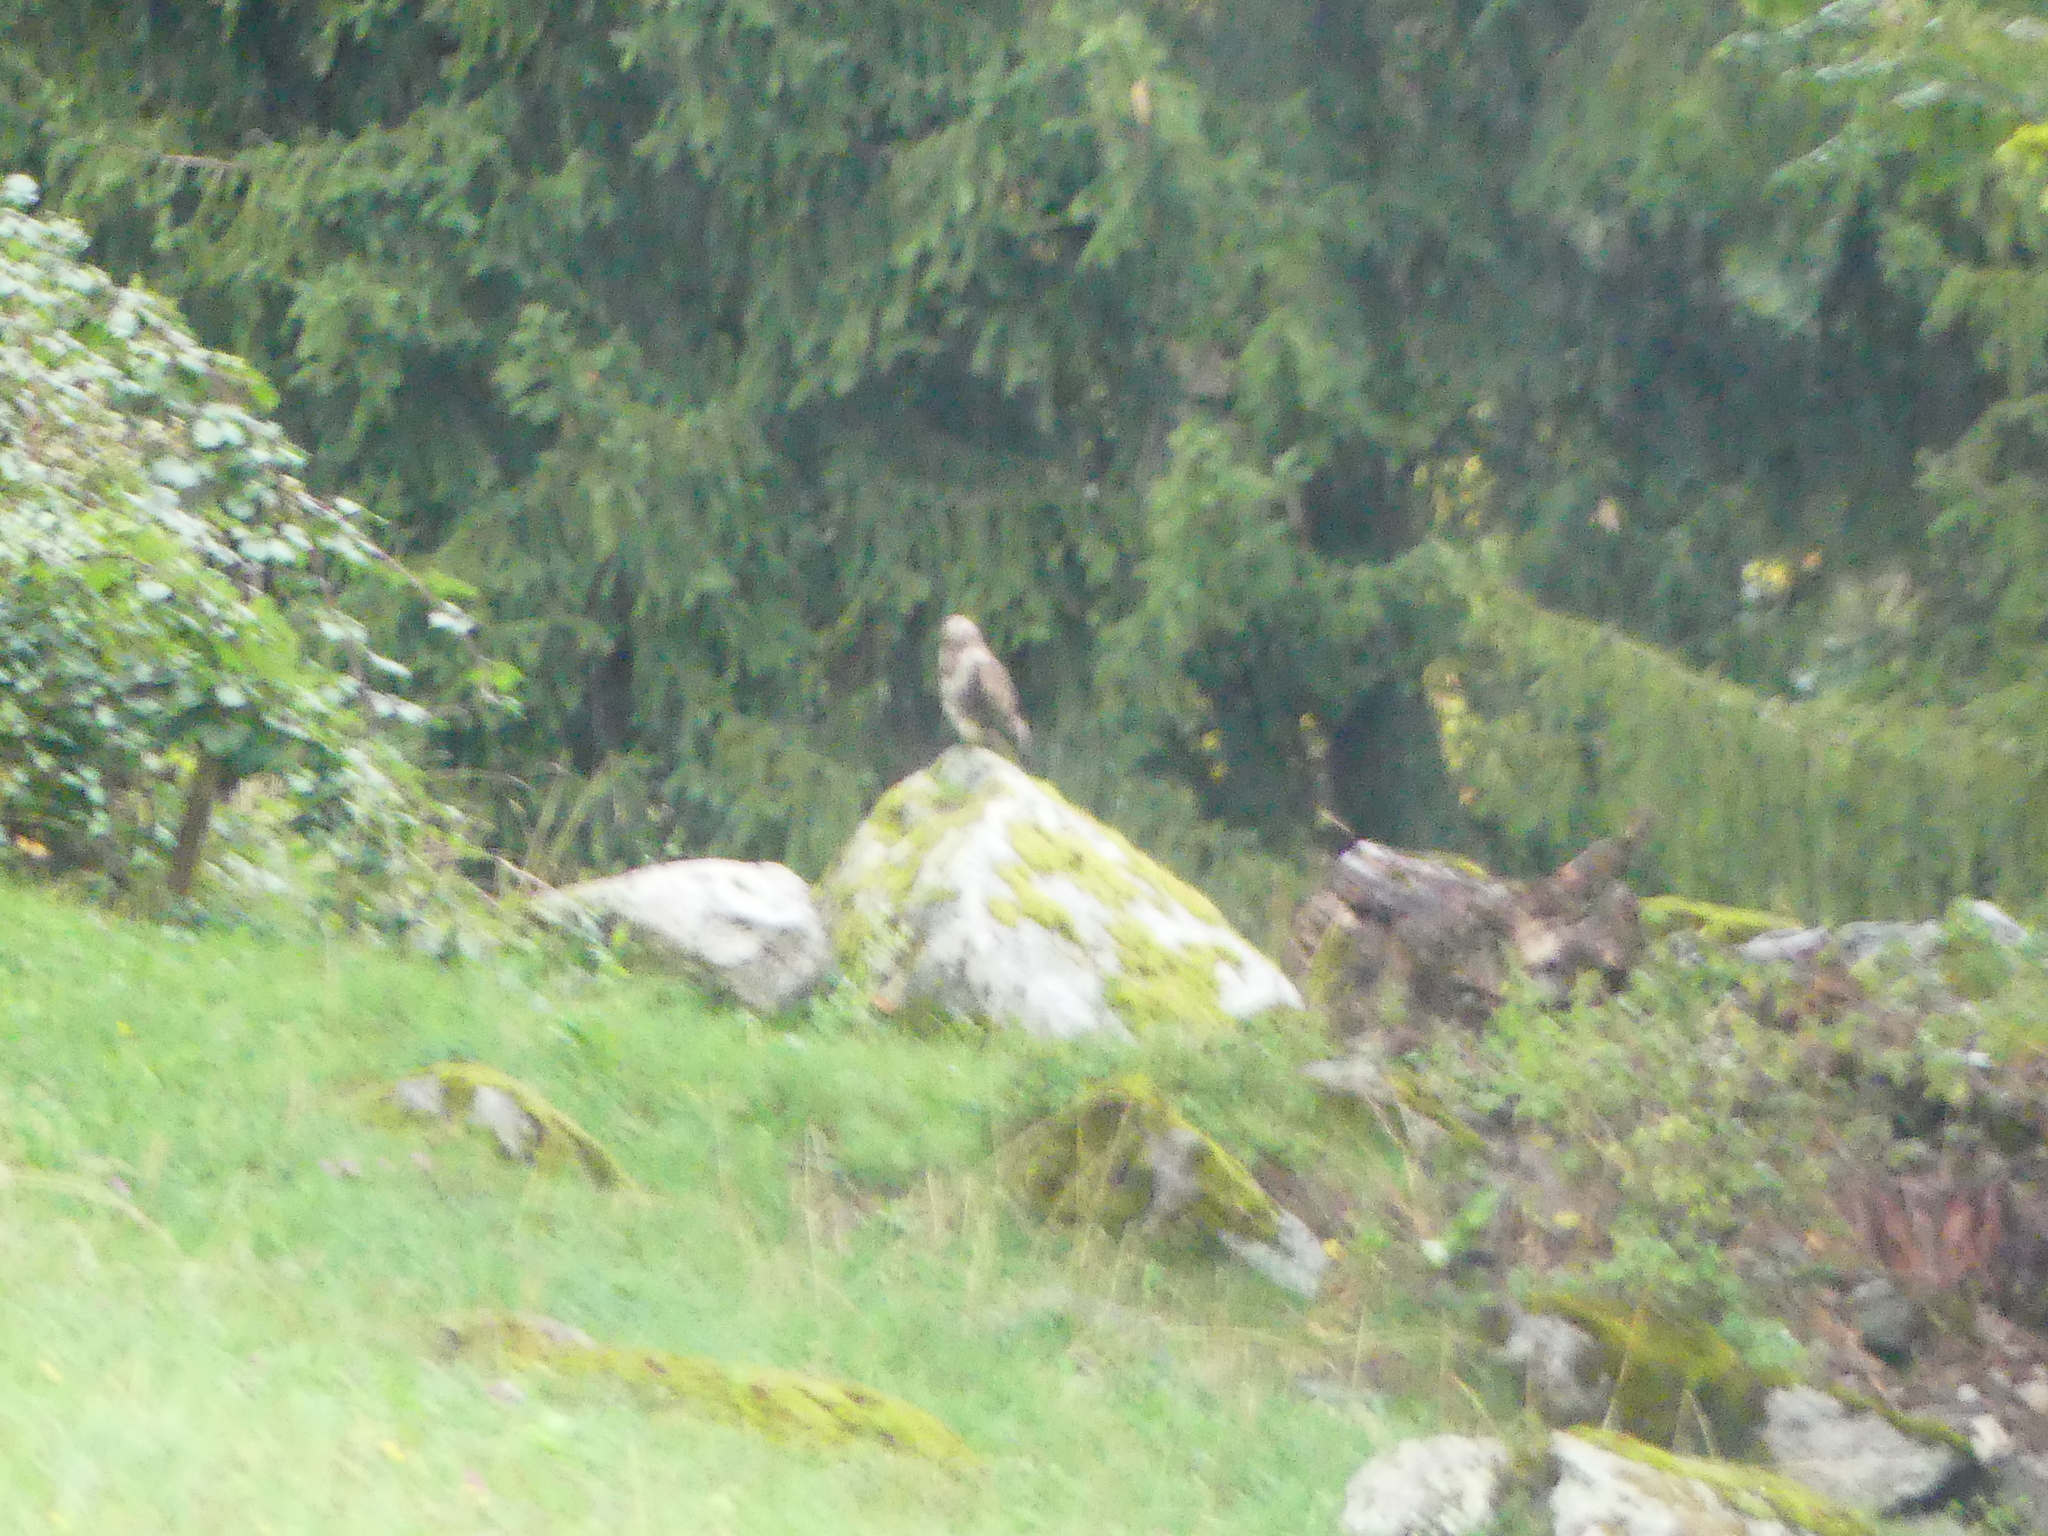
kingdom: Animalia
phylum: Chordata
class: Aves
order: Accipitriformes
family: Accipitridae
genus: Buteo
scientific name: Buteo buteo
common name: Common buzzard
